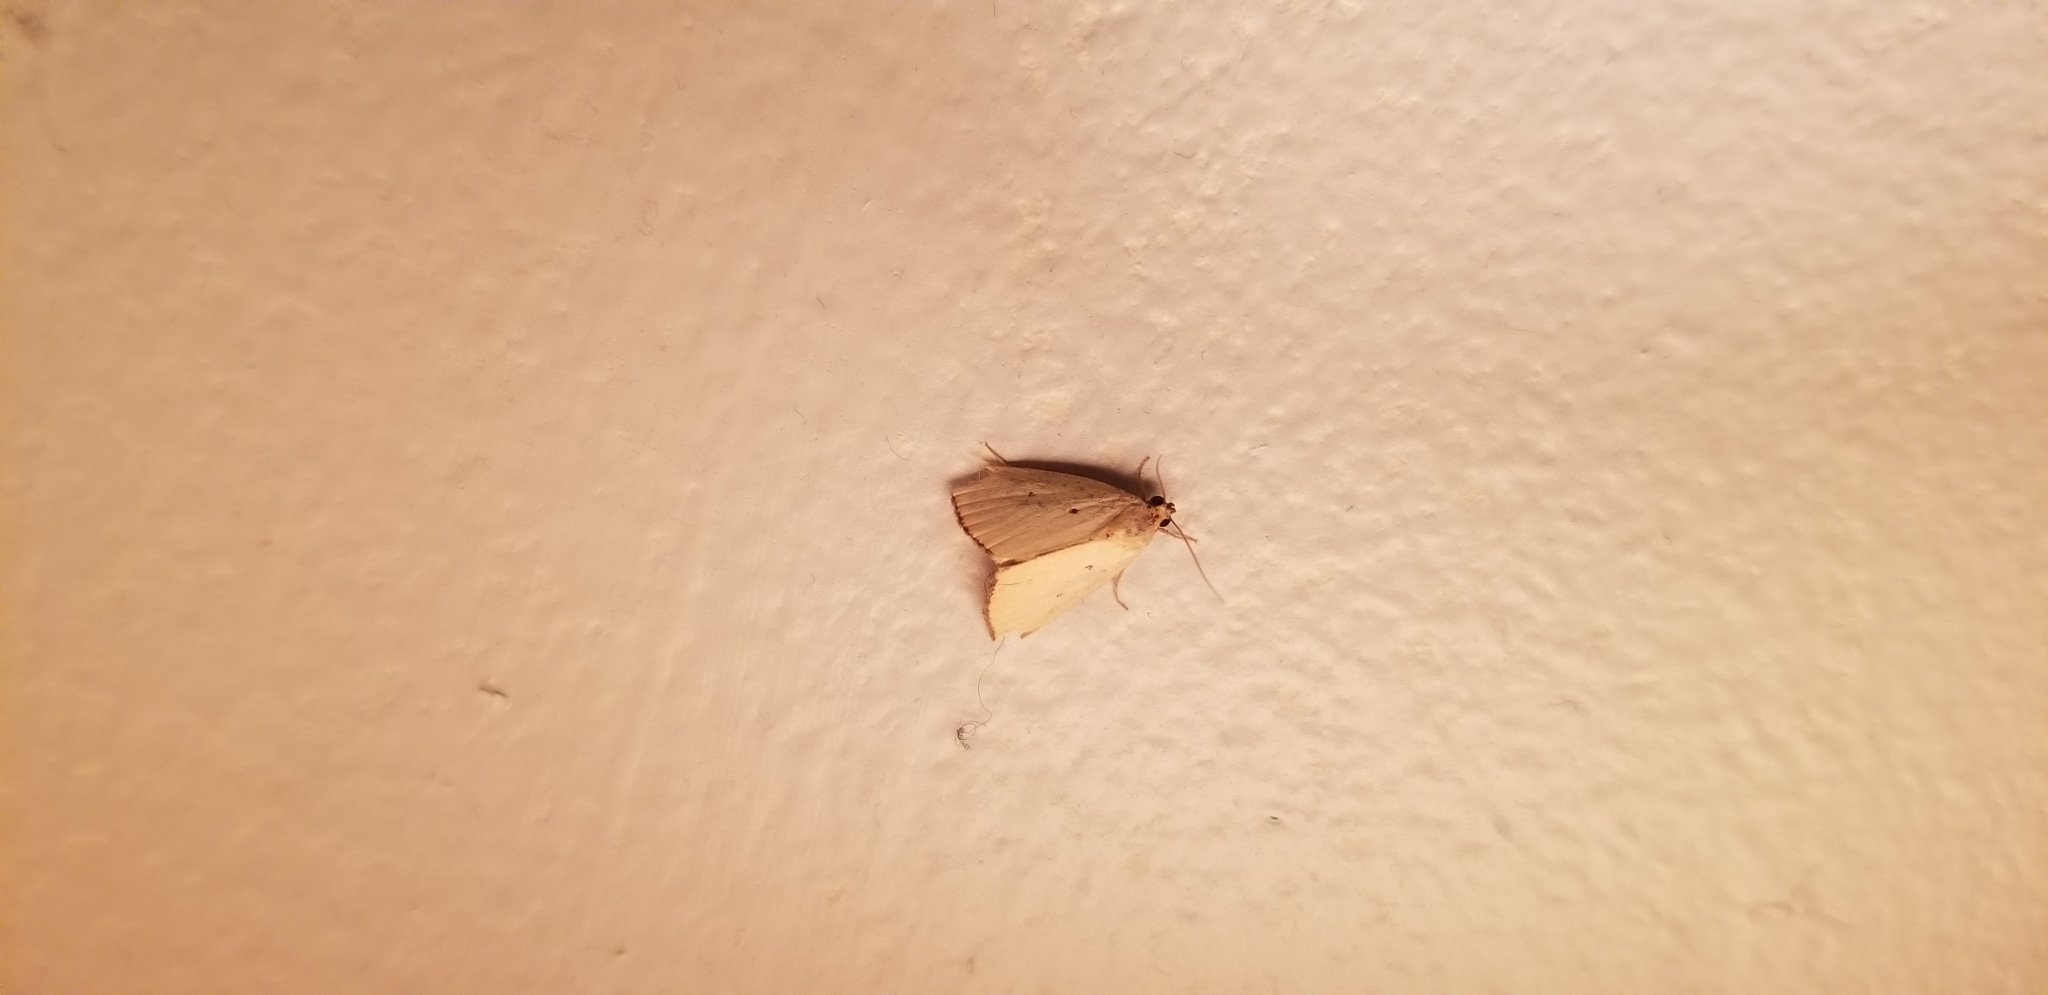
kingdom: Animalia
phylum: Arthropoda
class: Insecta
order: Lepidoptera
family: Noctuidae
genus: Marimatha
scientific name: Marimatha nigrofimbria
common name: Black-bordered lemon moth
